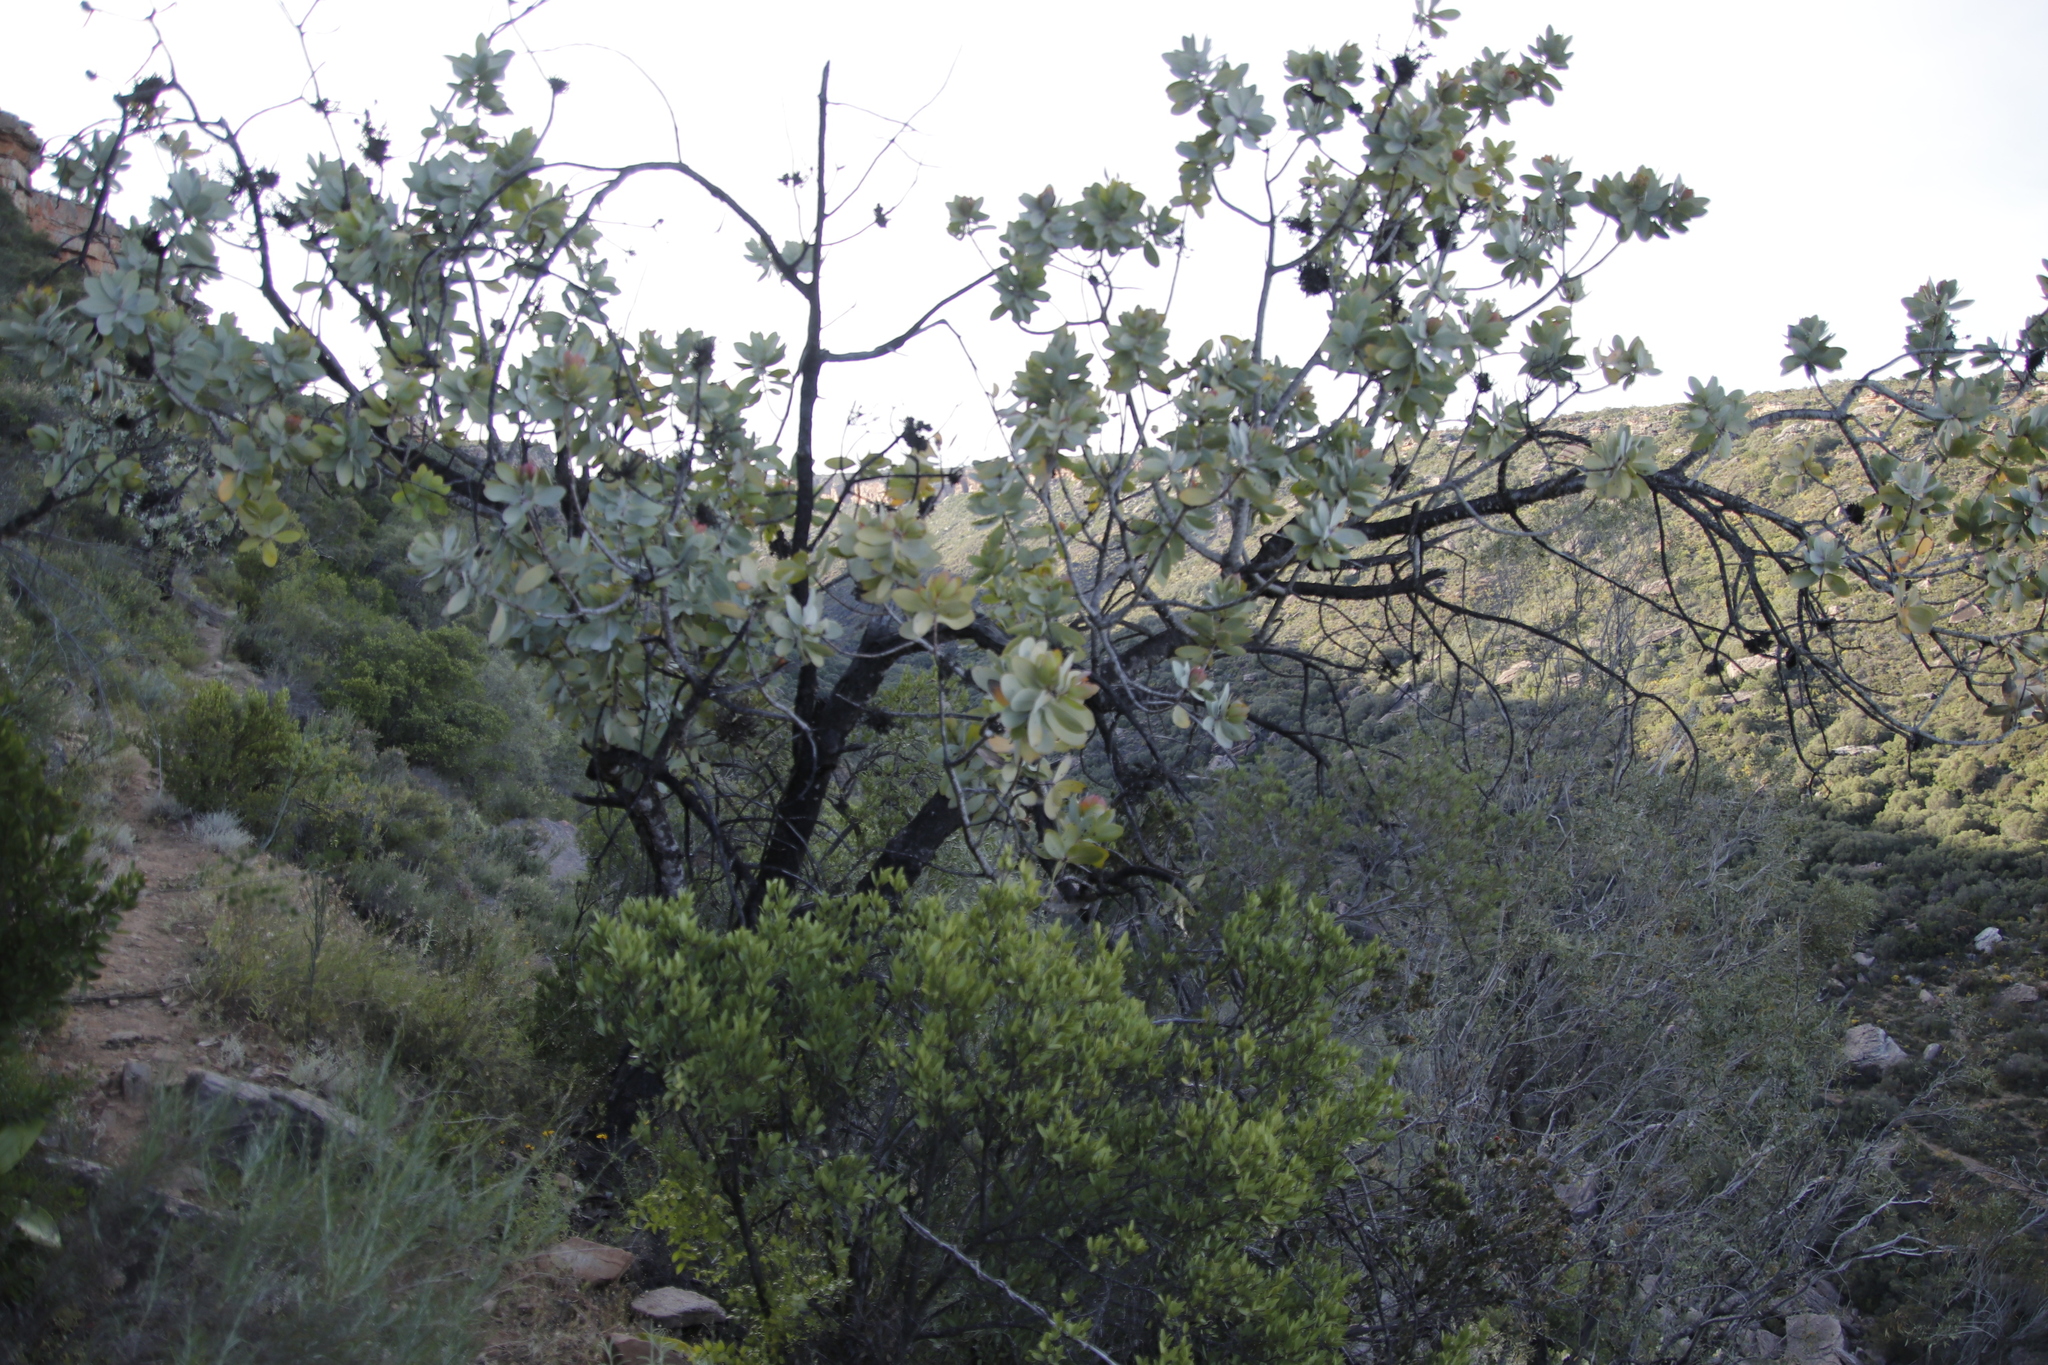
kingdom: Plantae
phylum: Tracheophyta
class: Magnoliopsida
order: Proteales
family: Proteaceae
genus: Protea
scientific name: Protea nitida
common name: Tree protea
